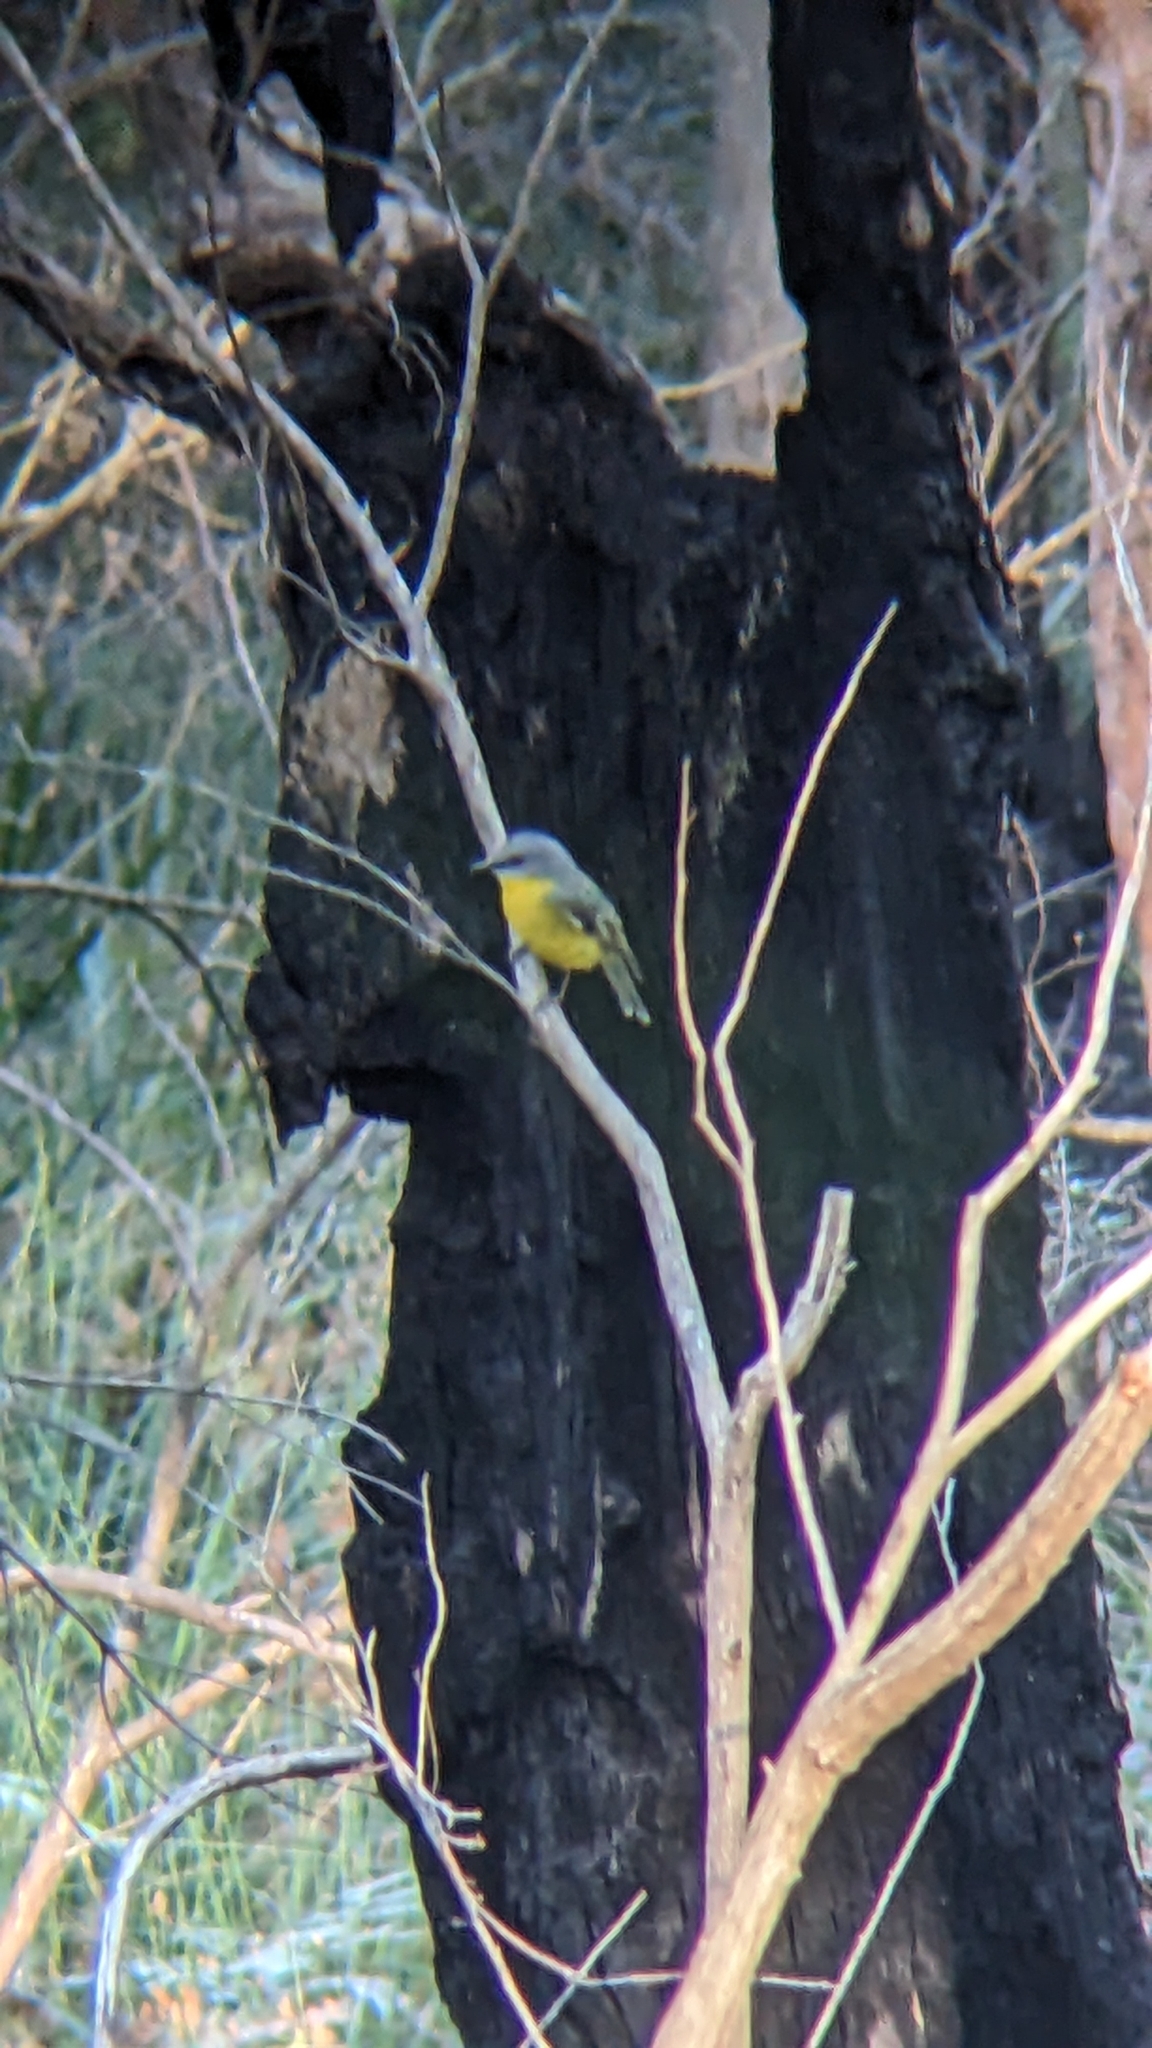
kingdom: Animalia
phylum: Chordata
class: Aves
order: Passeriformes
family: Petroicidae
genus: Eopsaltria
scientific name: Eopsaltria australis
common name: Eastern yellow robin
